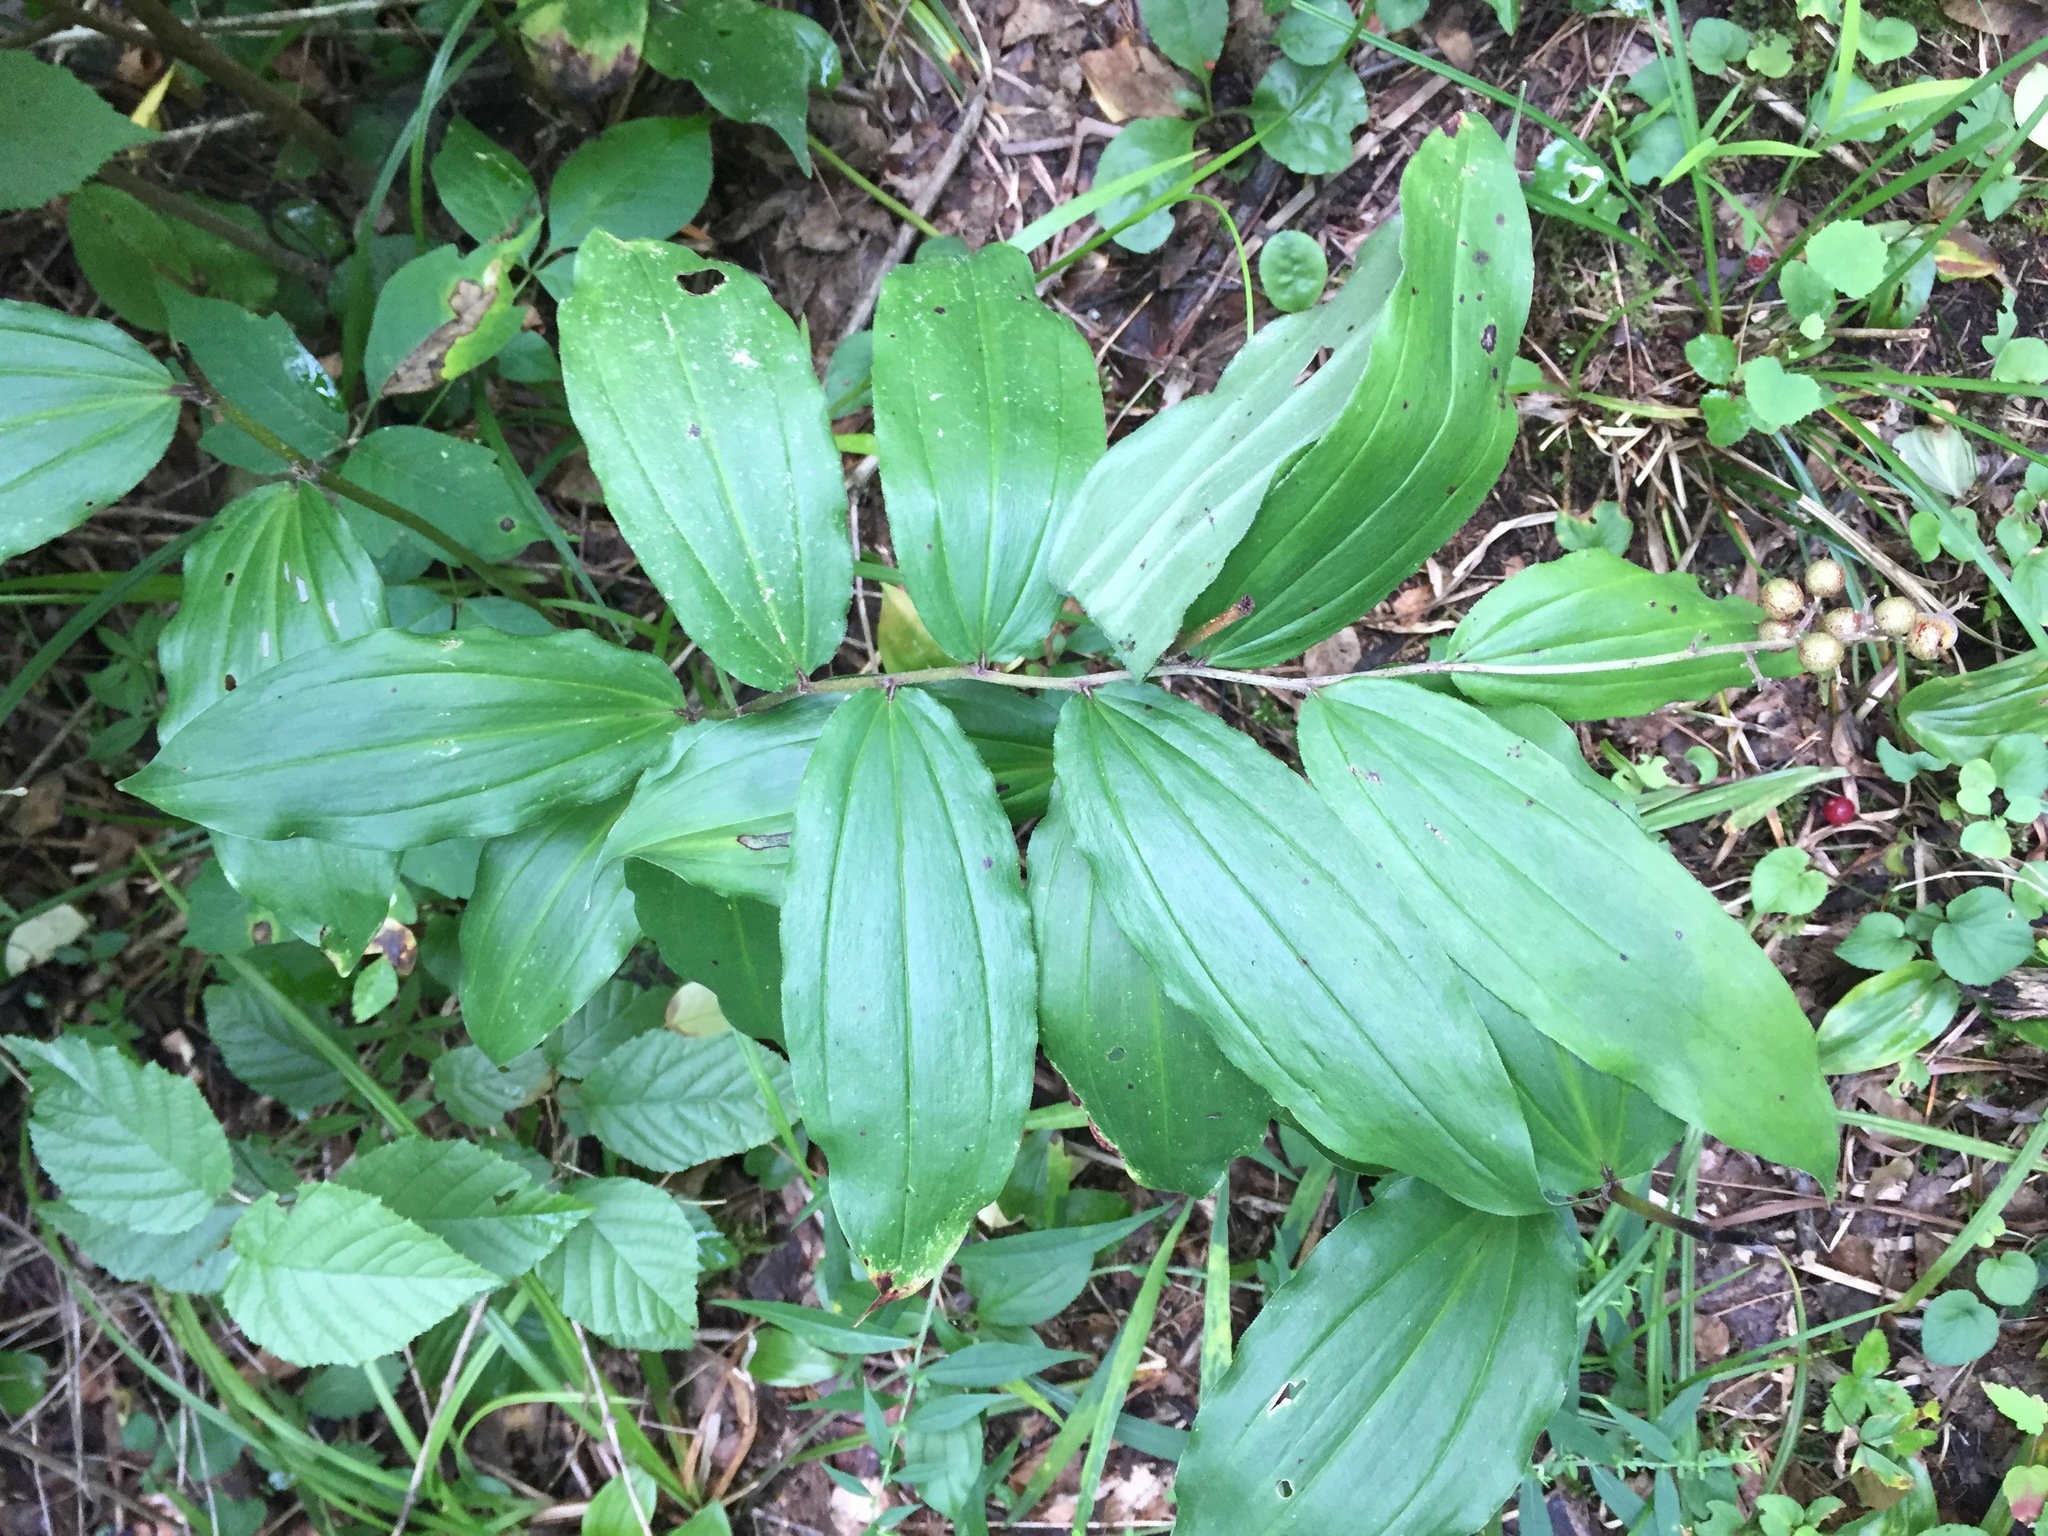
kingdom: Plantae
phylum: Tracheophyta
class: Liliopsida
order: Asparagales
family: Asparagaceae
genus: Maianthemum
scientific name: Maianthemum racemosum
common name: False spikenard
